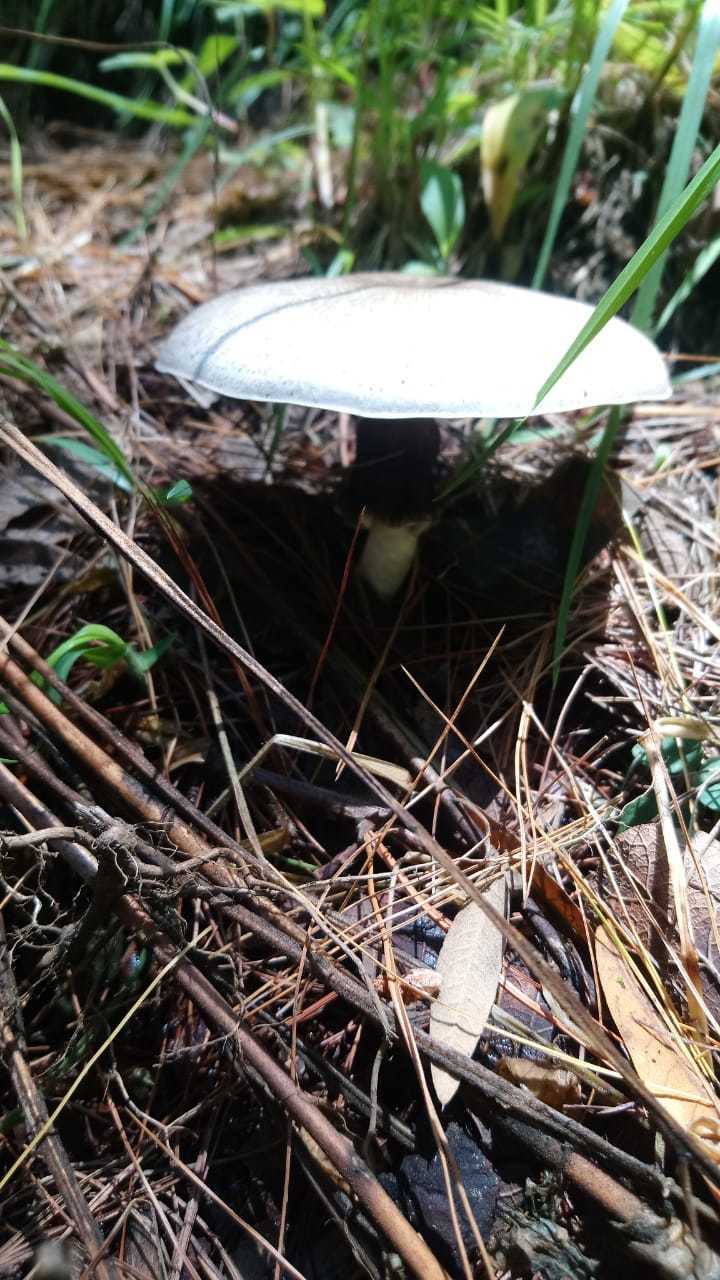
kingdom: Fungi
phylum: Basidiomycota
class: Agaricomycetes
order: Agaricales
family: Agaricaceae
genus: Agaricus
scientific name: Agaricus xanthodermus
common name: Yellow stainer
